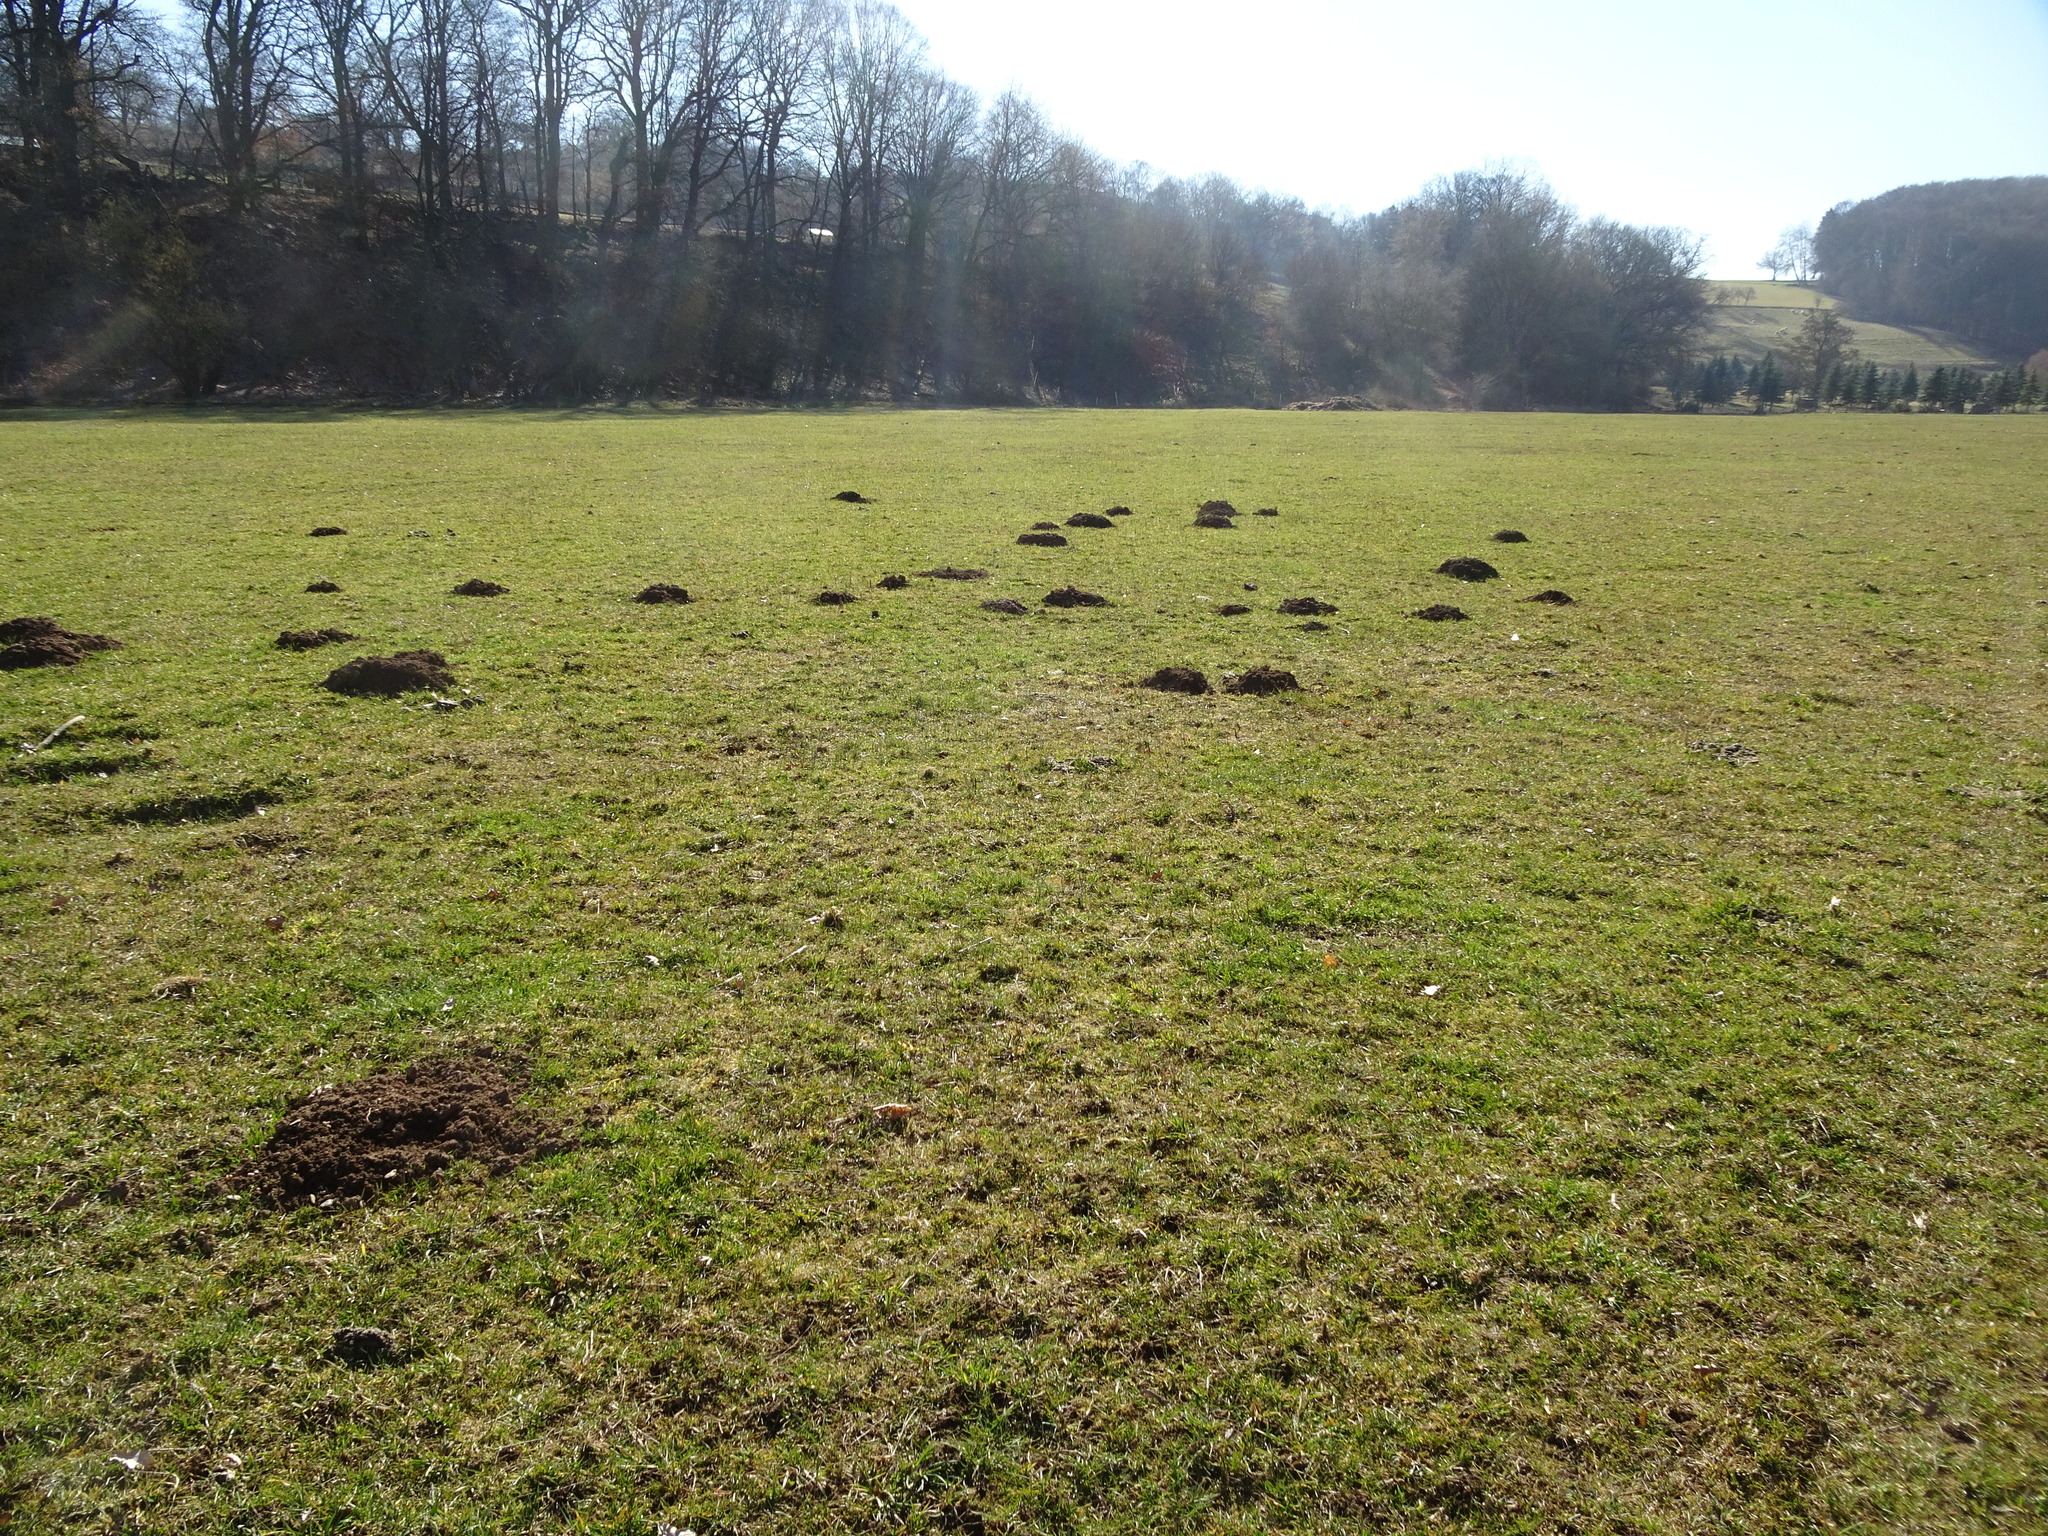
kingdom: Animalia
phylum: Chordata
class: Mammalia
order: Soricomorpha
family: Talpidae
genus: Talpa
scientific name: Talpa europaea
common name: European mole
